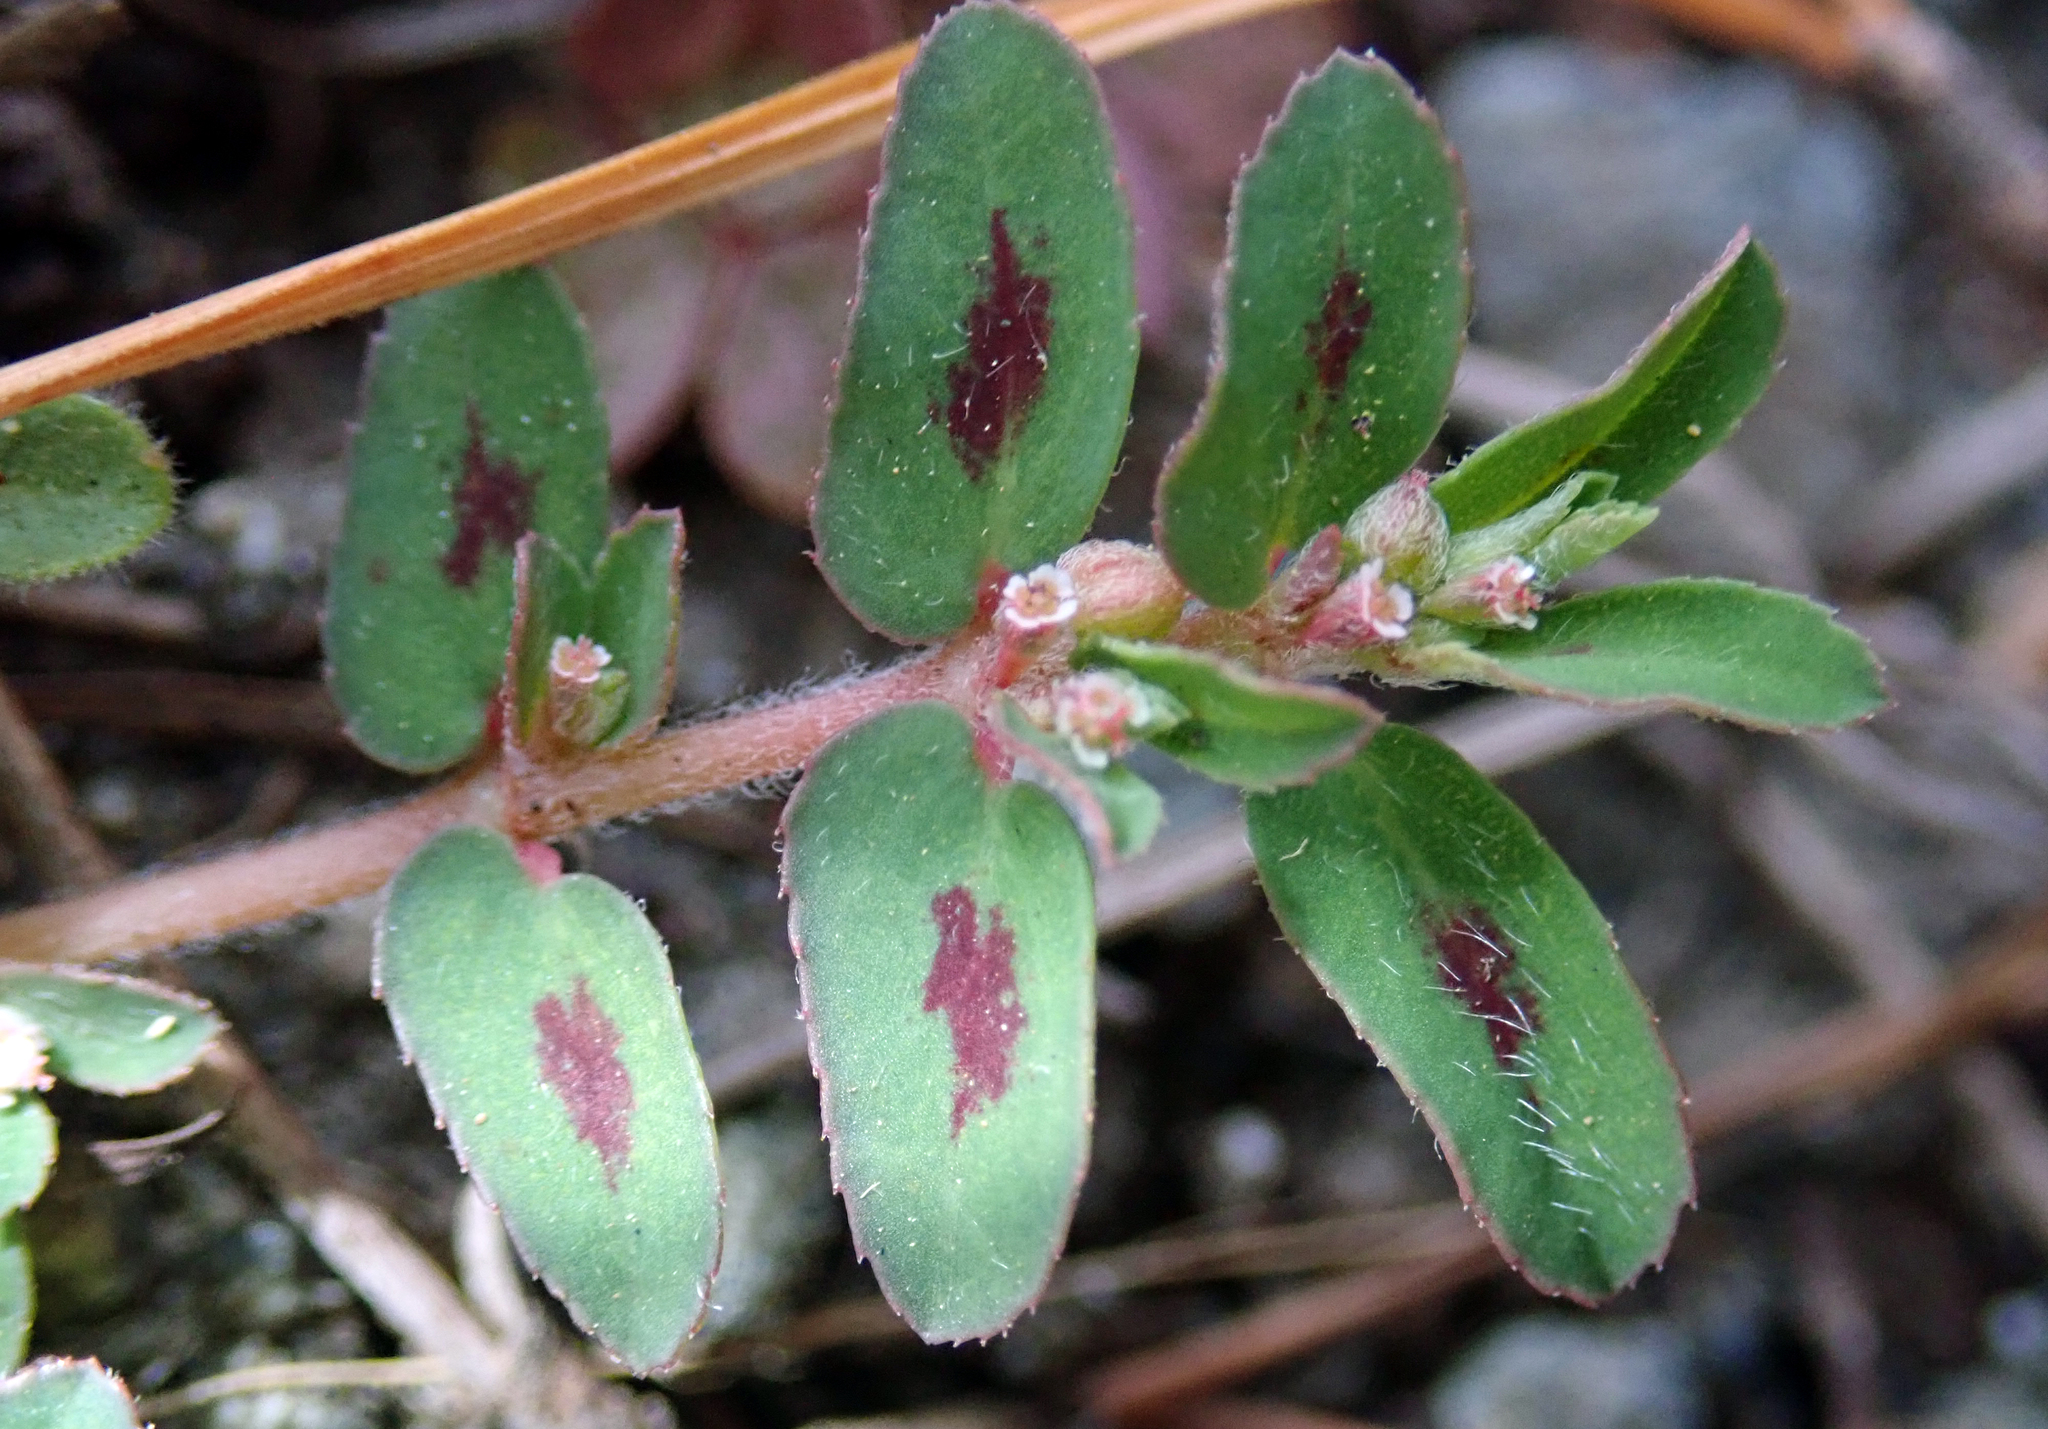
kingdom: Plantae
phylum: Tracheophyta
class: Magnoliopsida
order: Malpighiales
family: Euphorbiaceae
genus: Euphorbia
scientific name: Euphorbia maculata
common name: Spotted spurge
